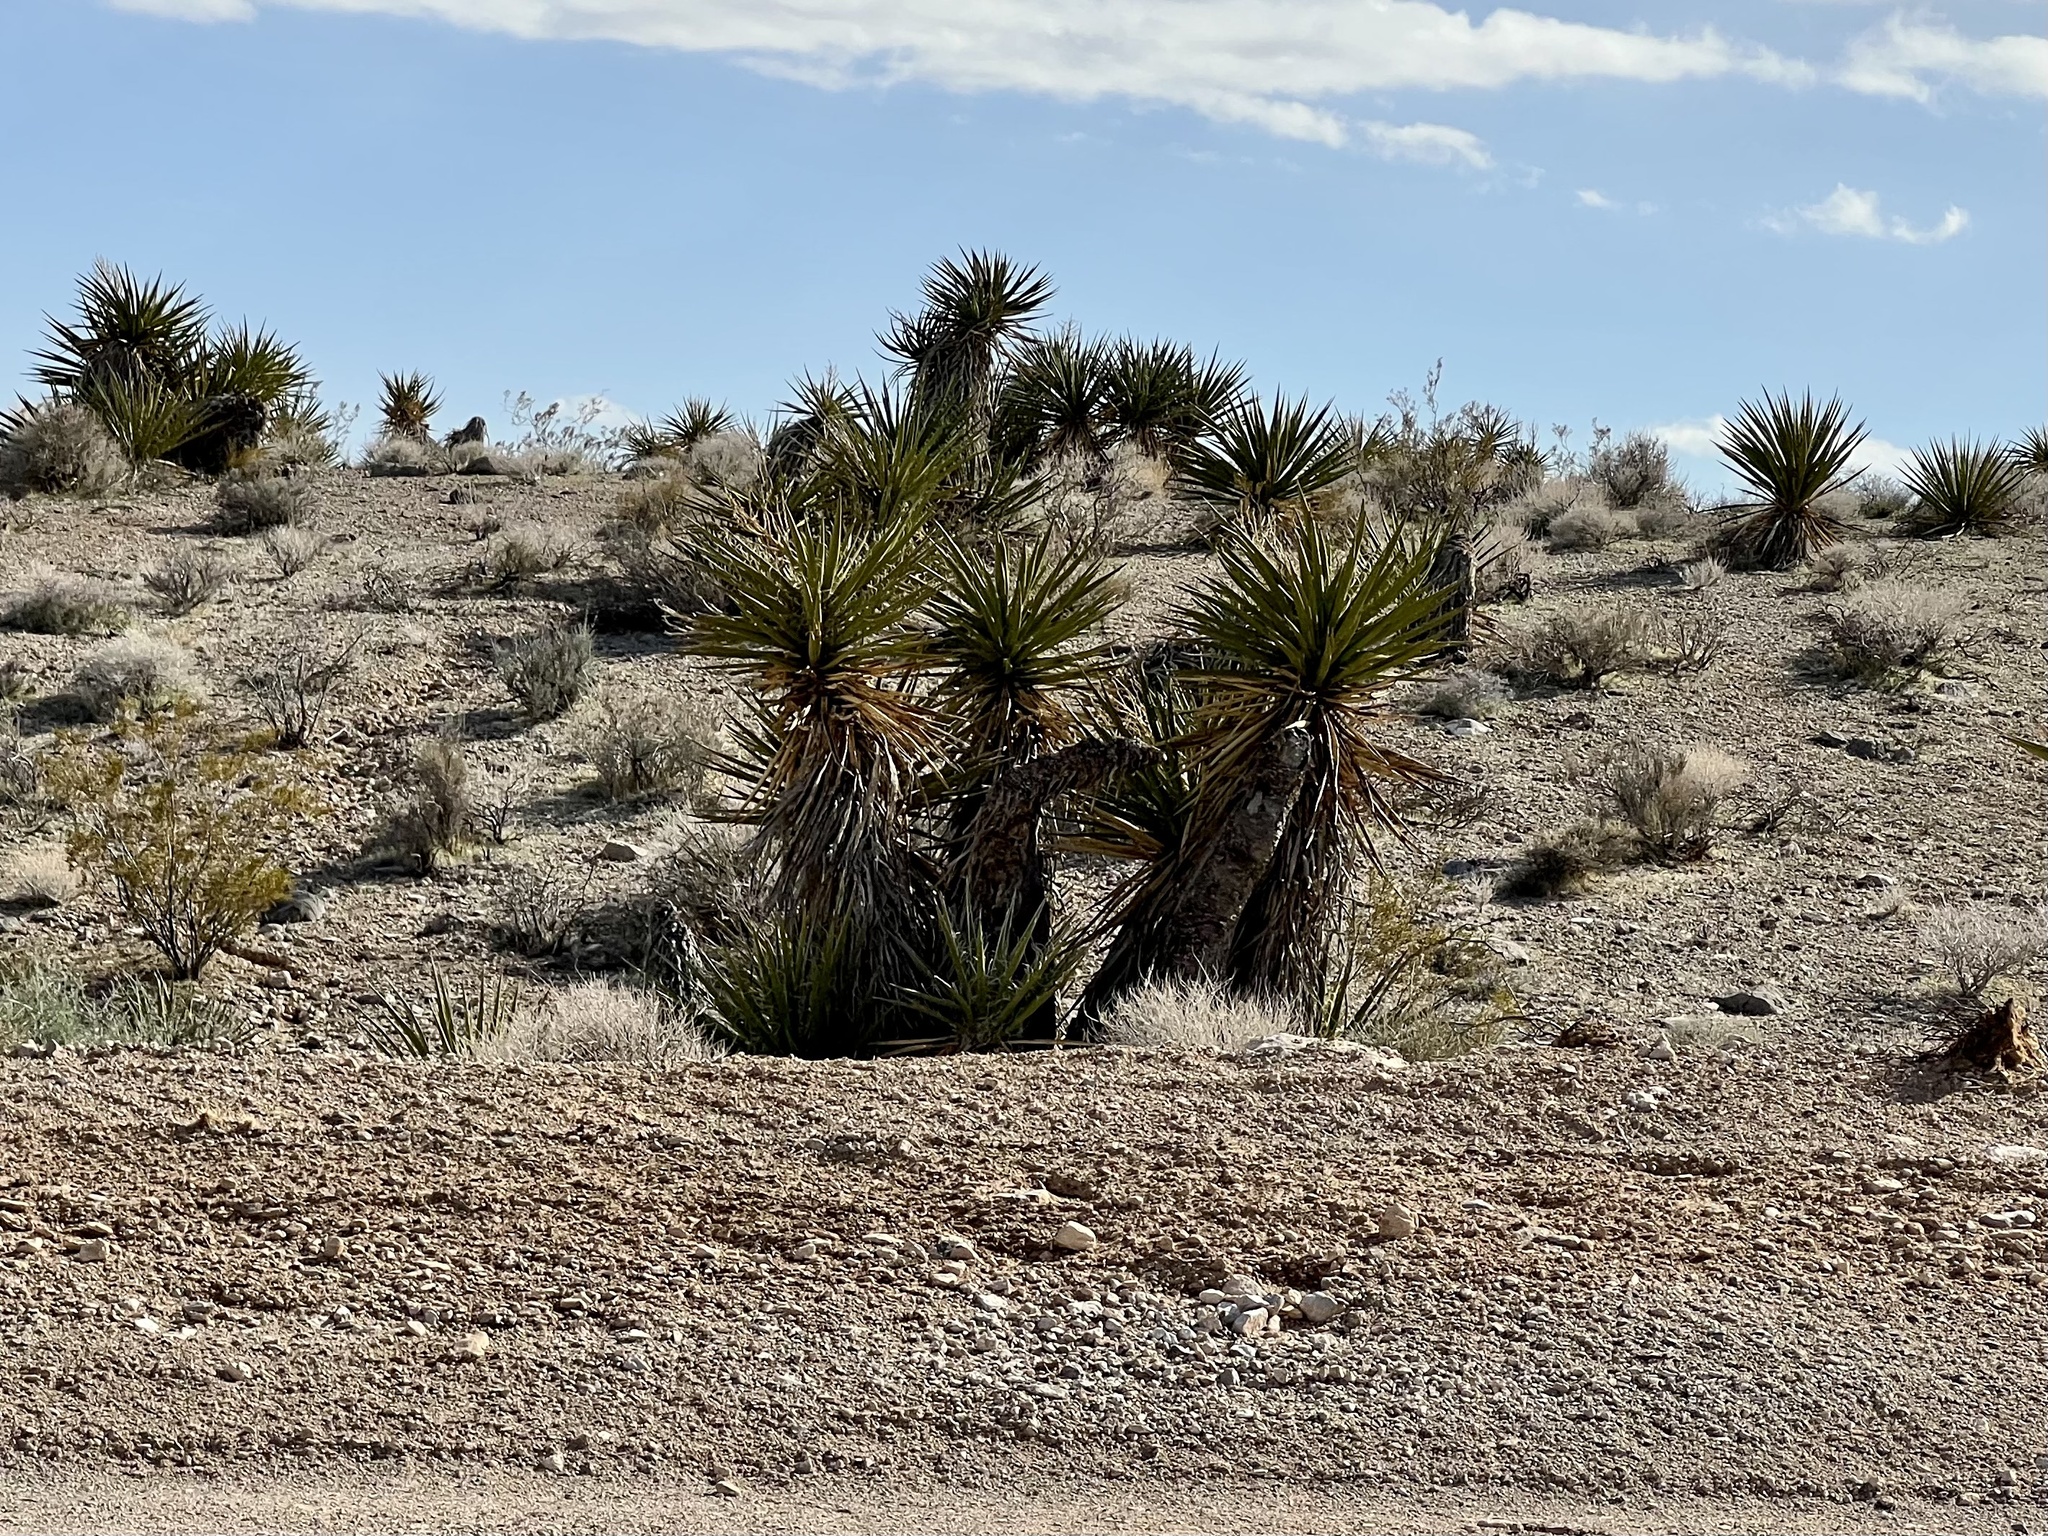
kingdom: Plantae
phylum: Tracheophyta
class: Liliopsida
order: Asparagales
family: Asparagaceae
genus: Yucca
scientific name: Yucca schidigera
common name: Mojave yucca
